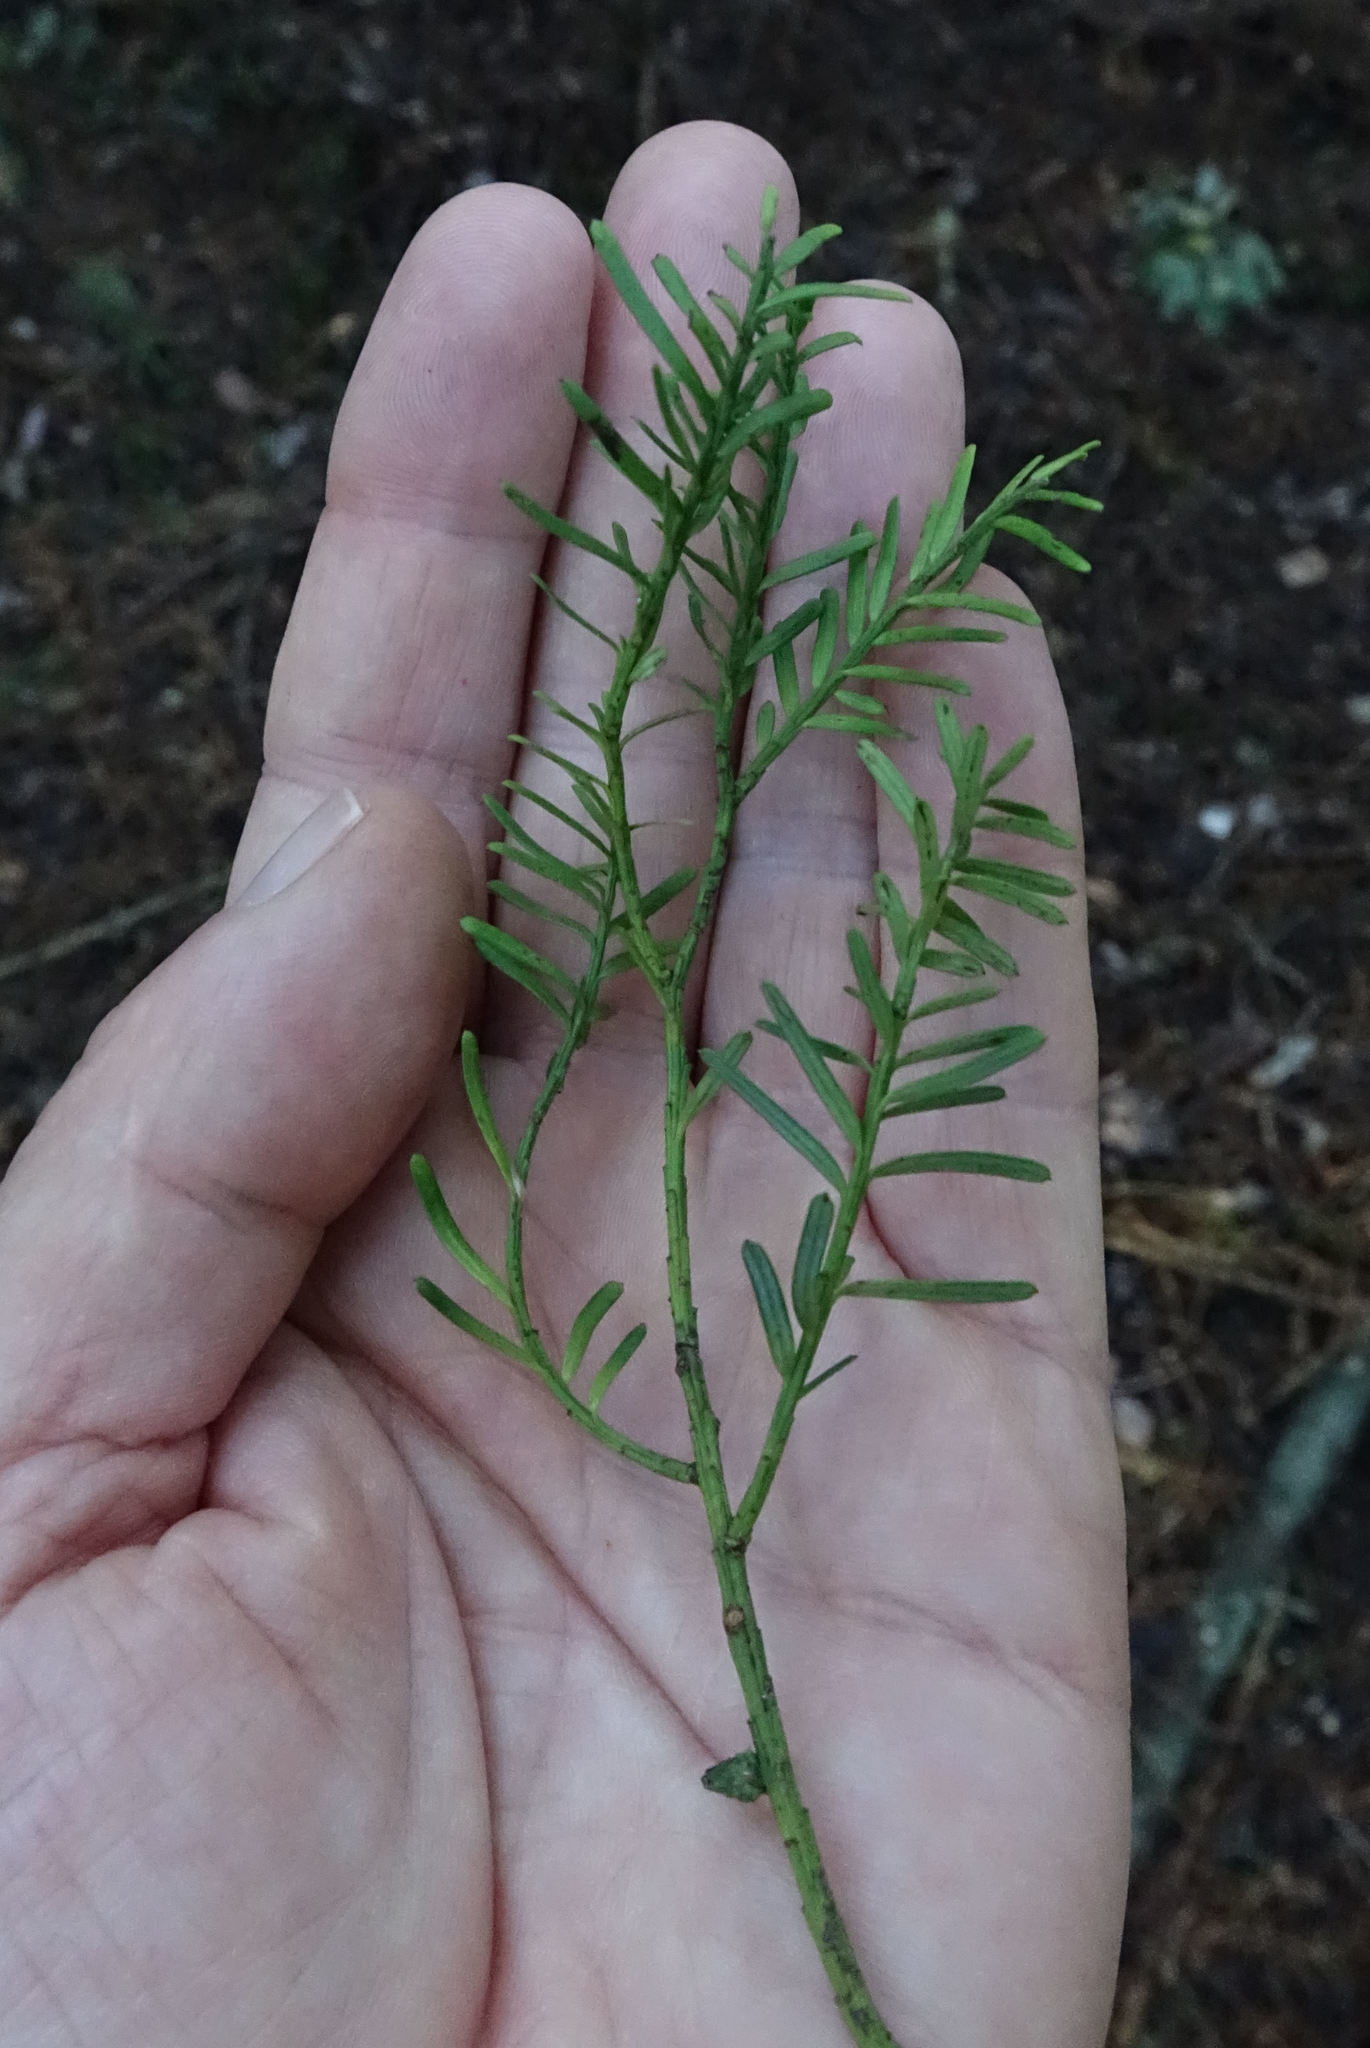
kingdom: Plantae
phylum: Tracheophyta
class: Pinopsida
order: Pinales
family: Podocarpaceae
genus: Prumnopitys
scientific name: Prumnopitys taxifolia
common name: Matai
